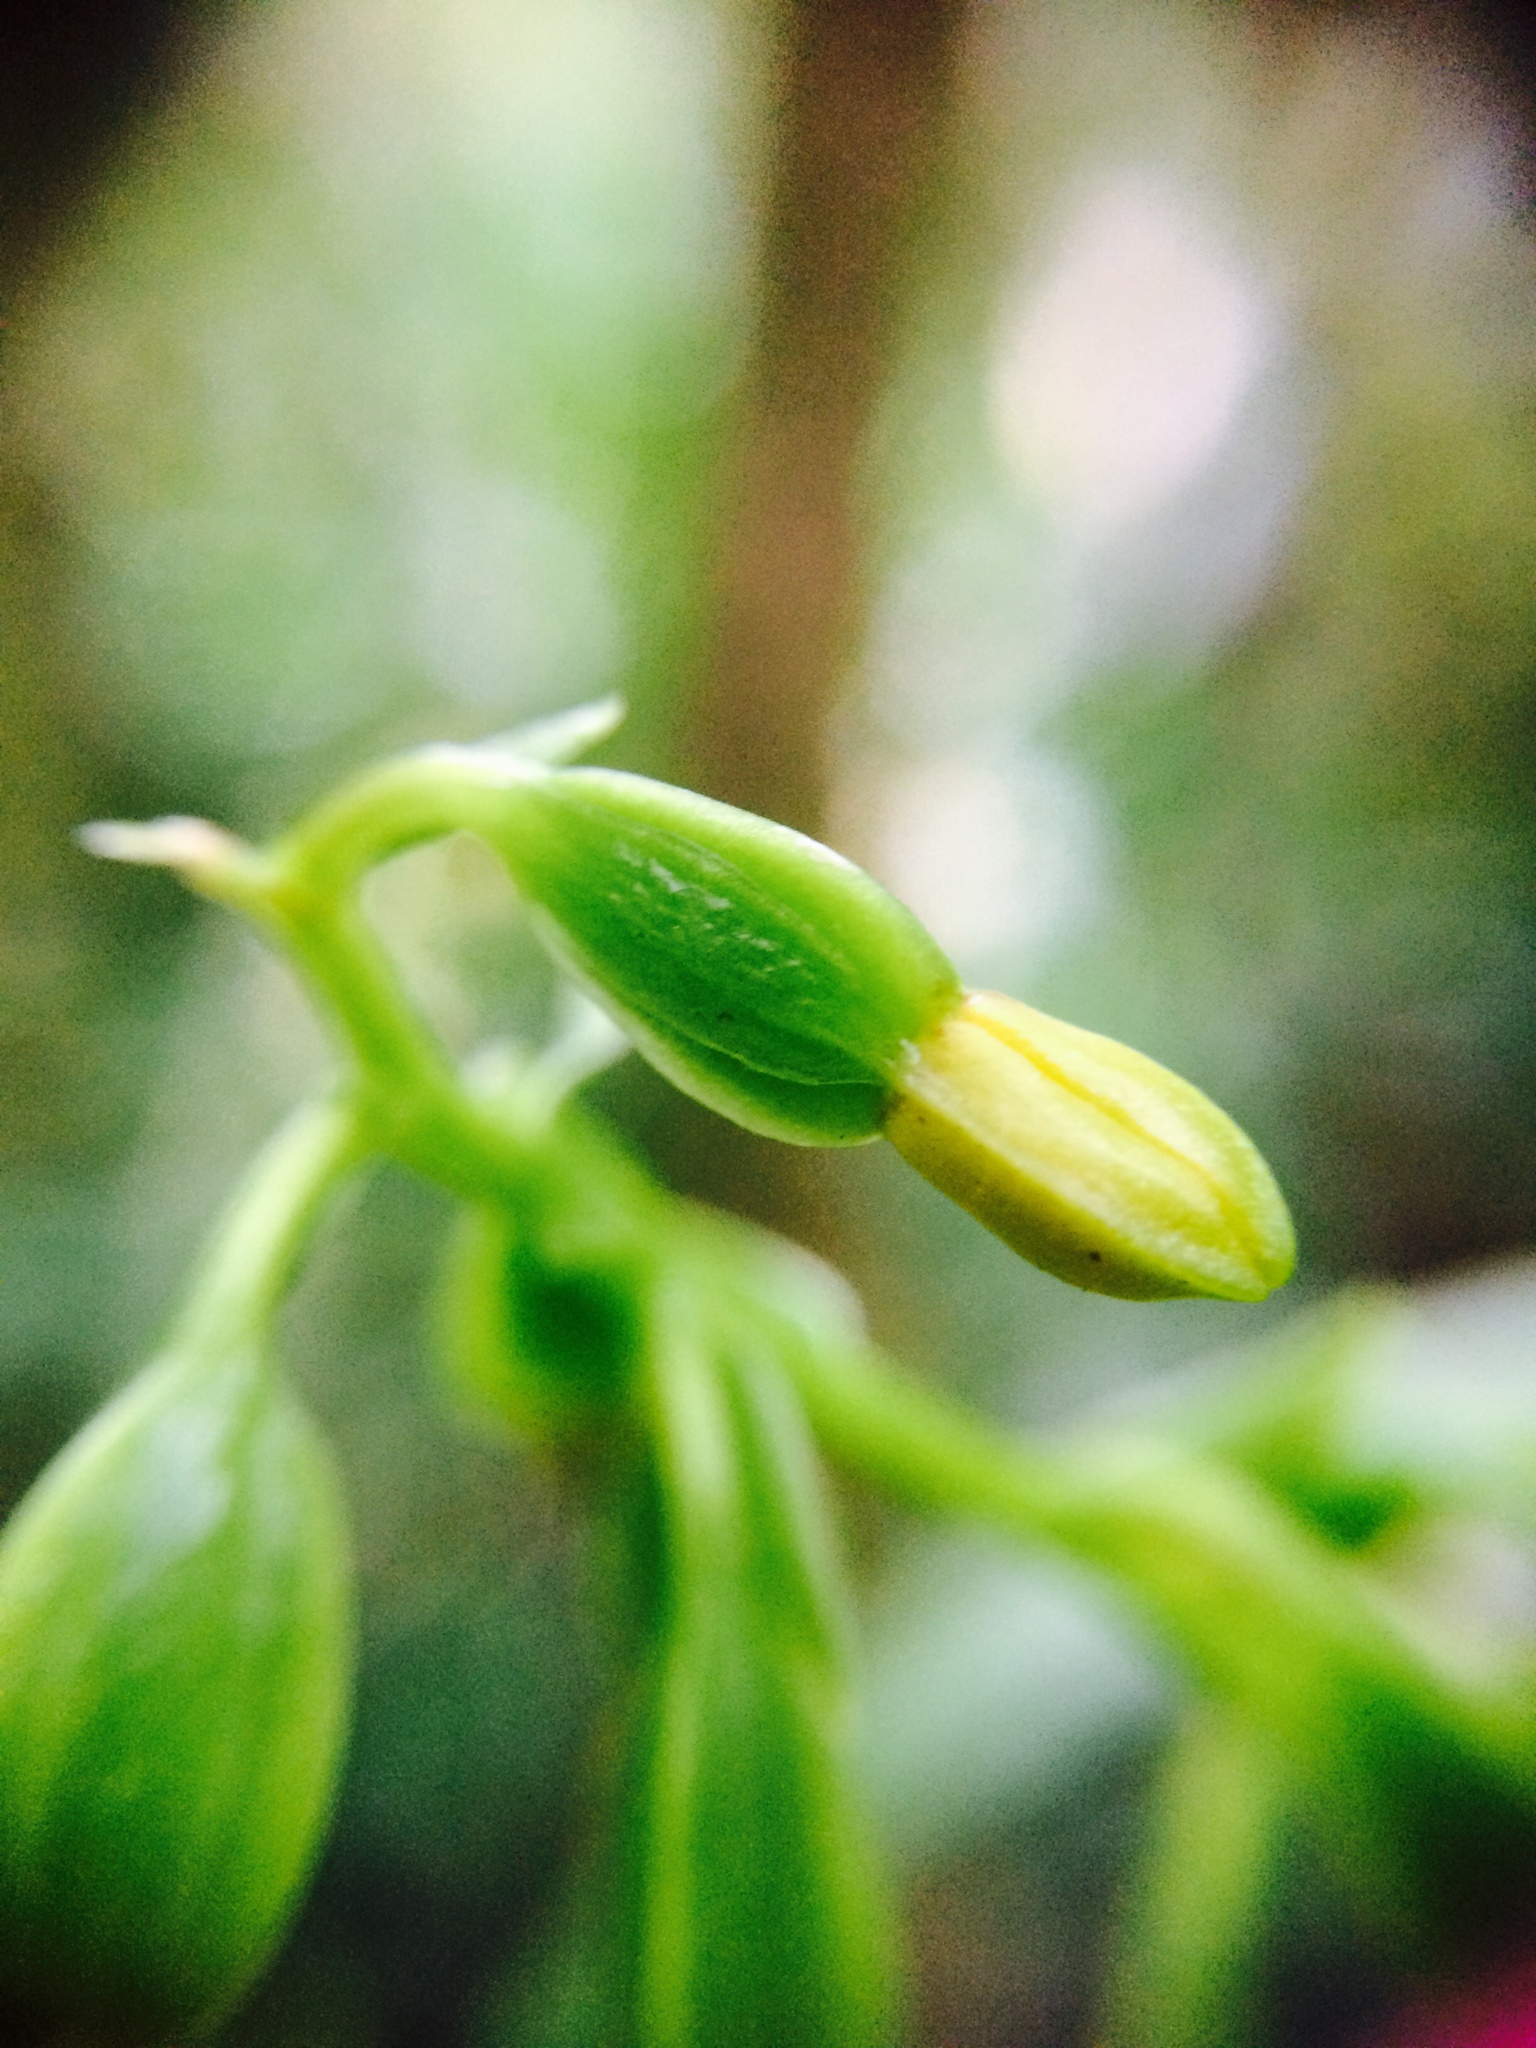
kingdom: Plantae
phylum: Tracheophyta
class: Liliopsida
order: Asparagales
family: Orchidaceae
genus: Prosthechea
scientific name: Prosthechea ochracea
